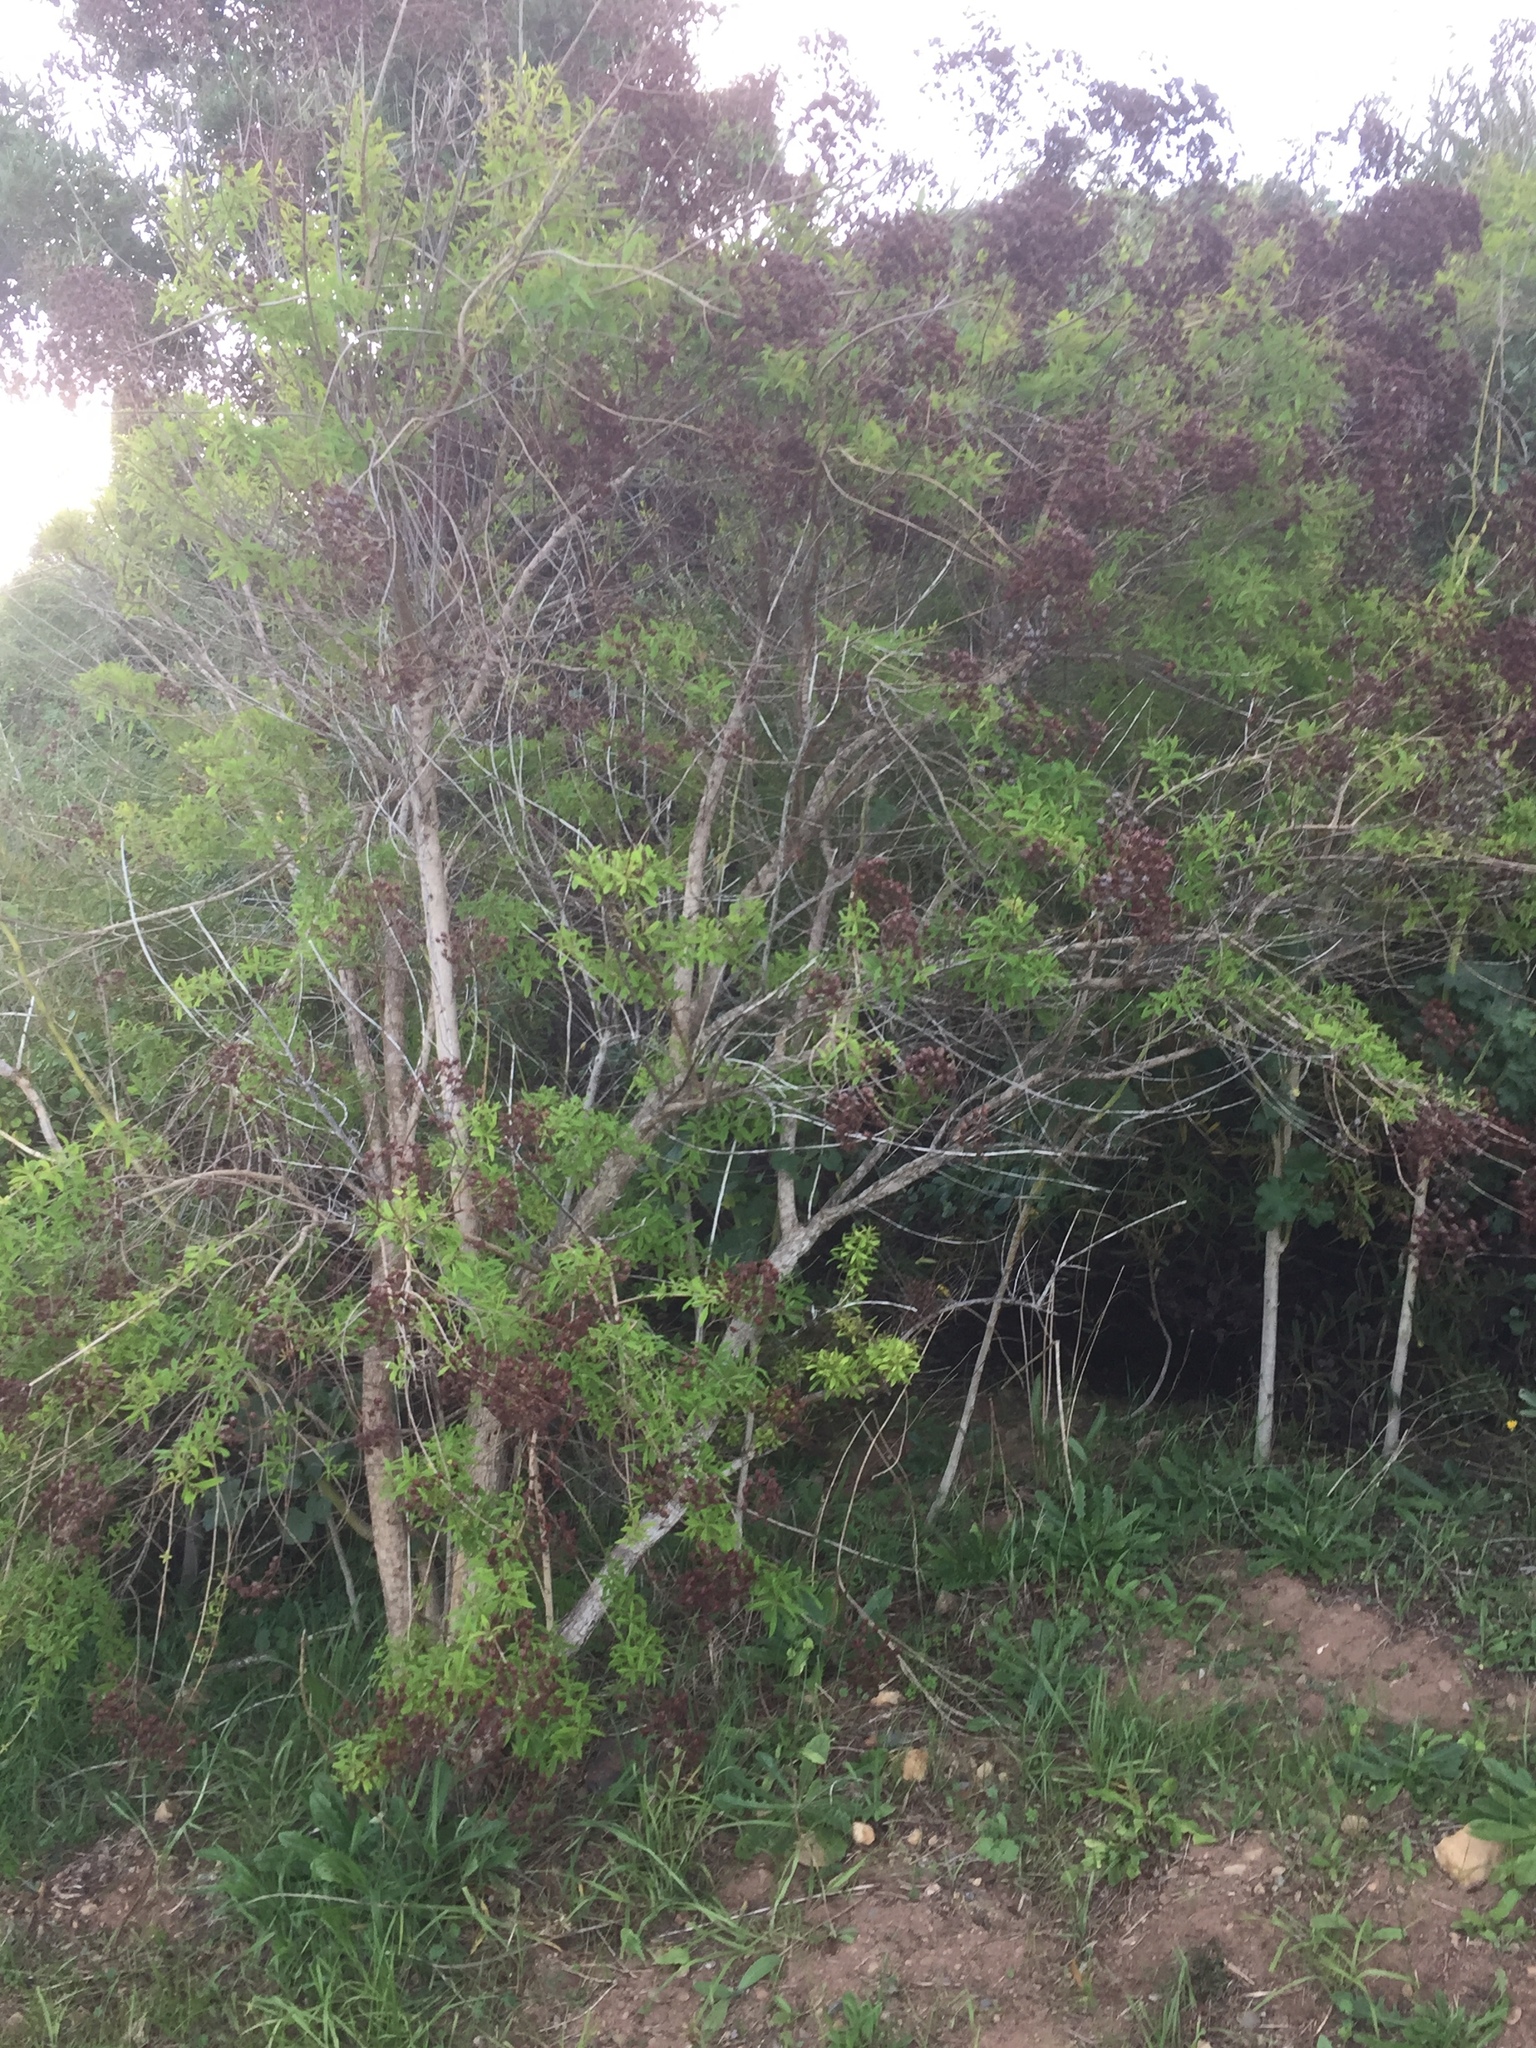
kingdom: Plantae
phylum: Tracheophyta
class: Magnoliopsida
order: Malpighiales
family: Hypericaceae
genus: Hypericum
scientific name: Hypericum canariense
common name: Canary island st. johnswort
